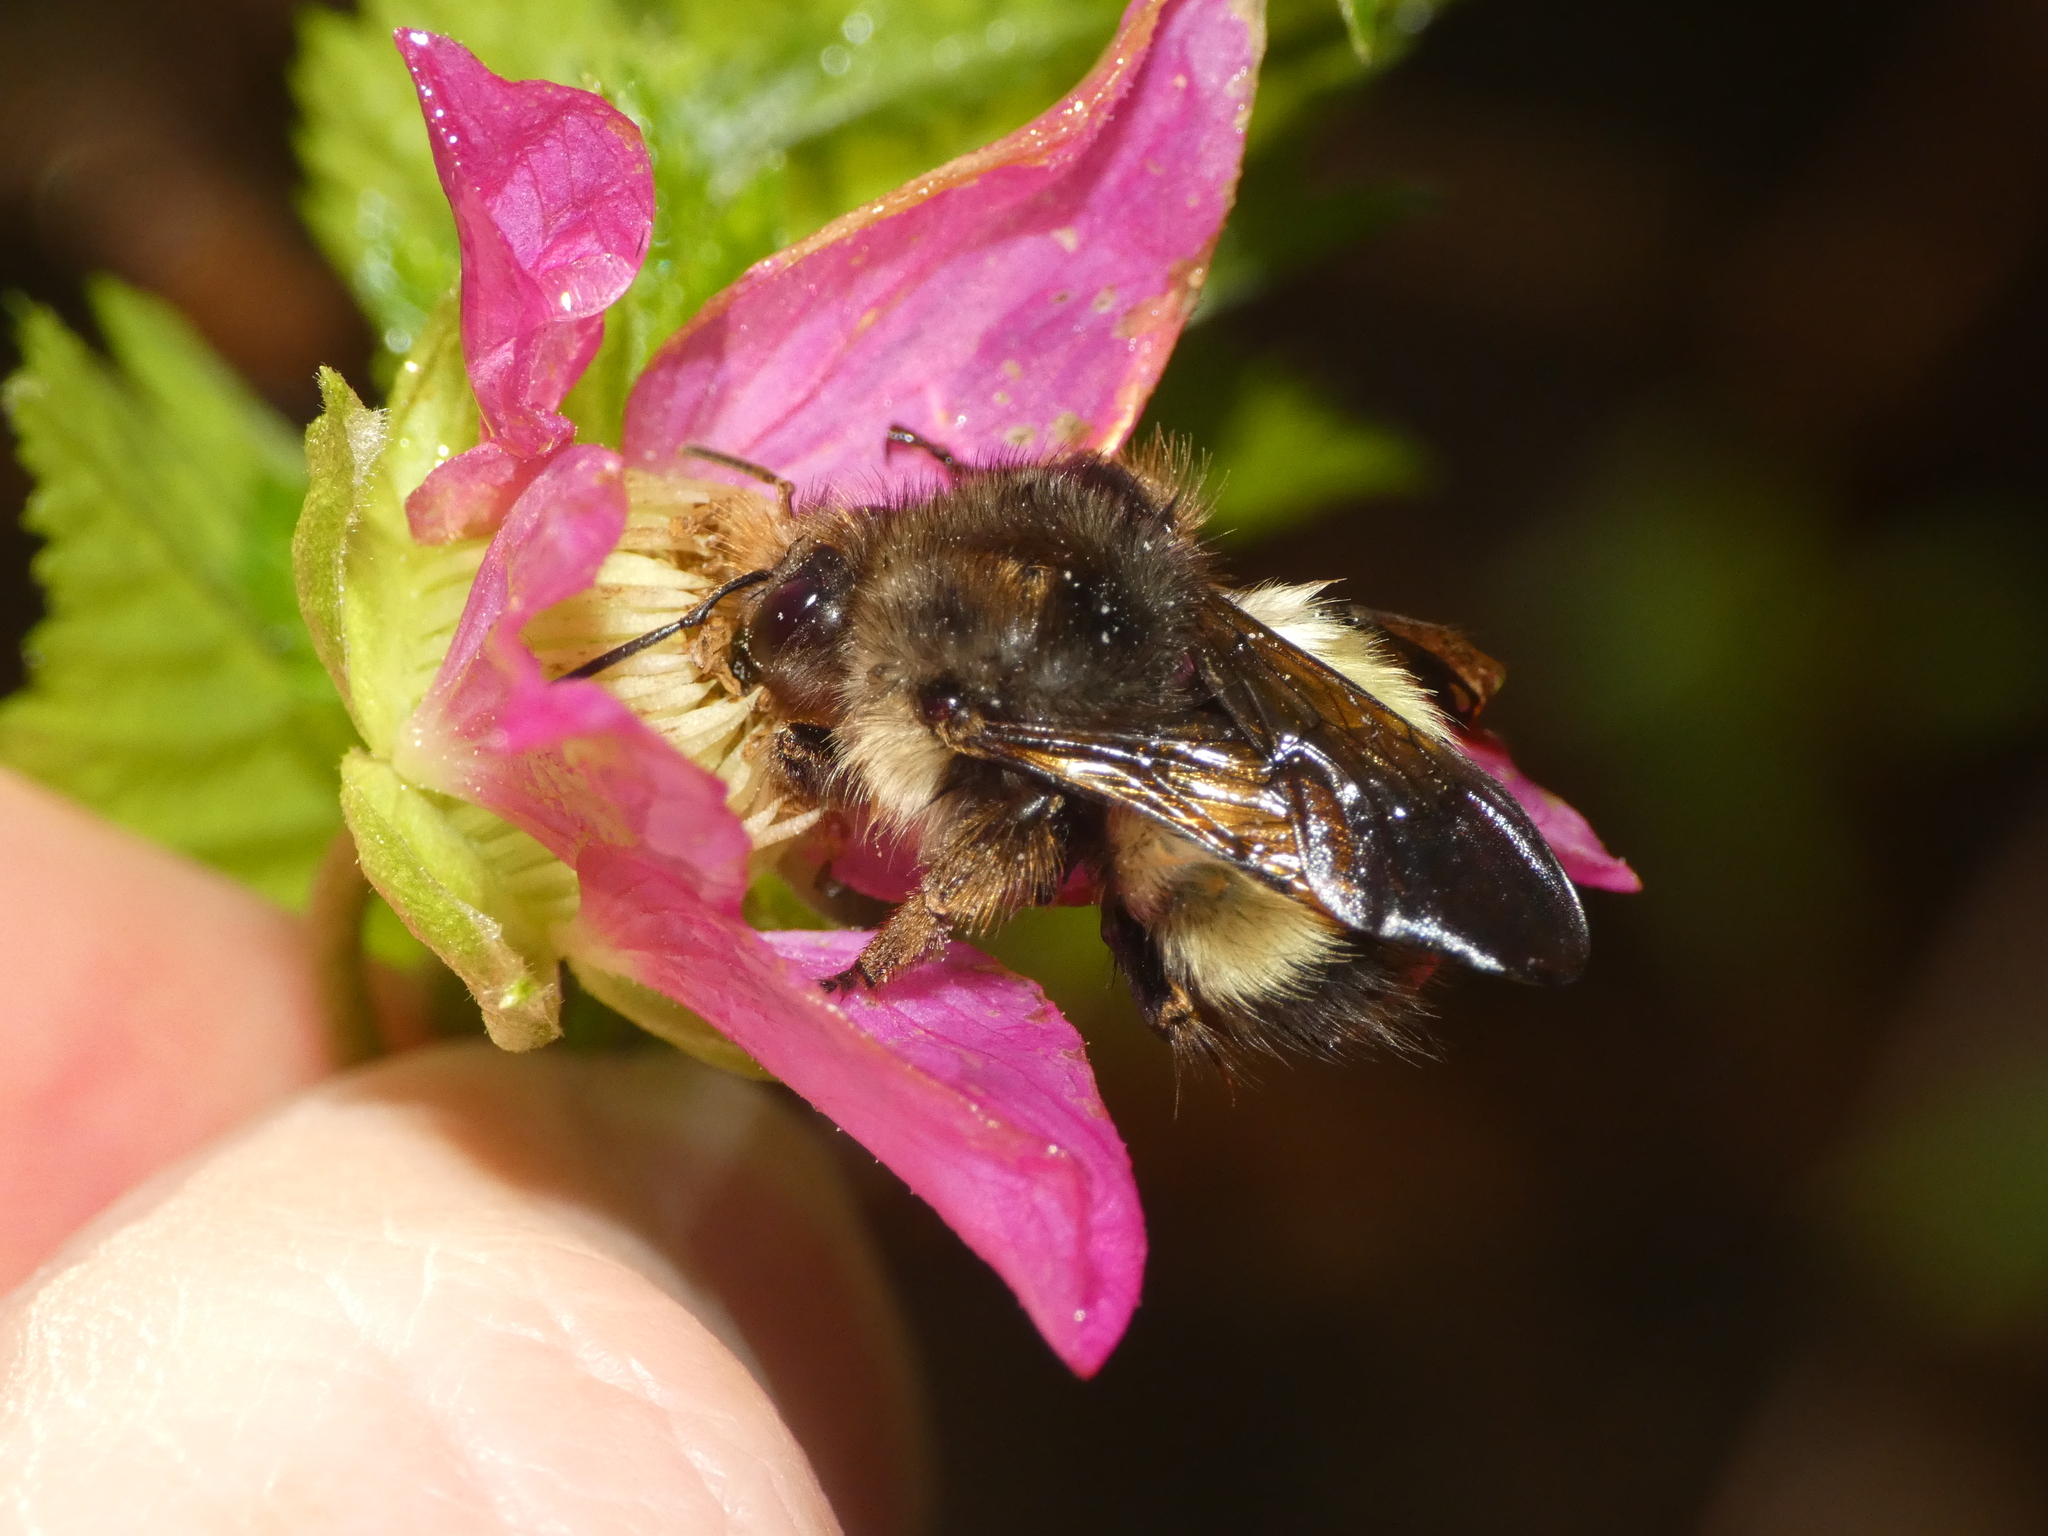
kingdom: Animalia
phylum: Arthropoda
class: Insecta
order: Hymenoptera
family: Apidae
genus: Bombus
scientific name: Bombus sitkensis
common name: Sitka bumble bee
